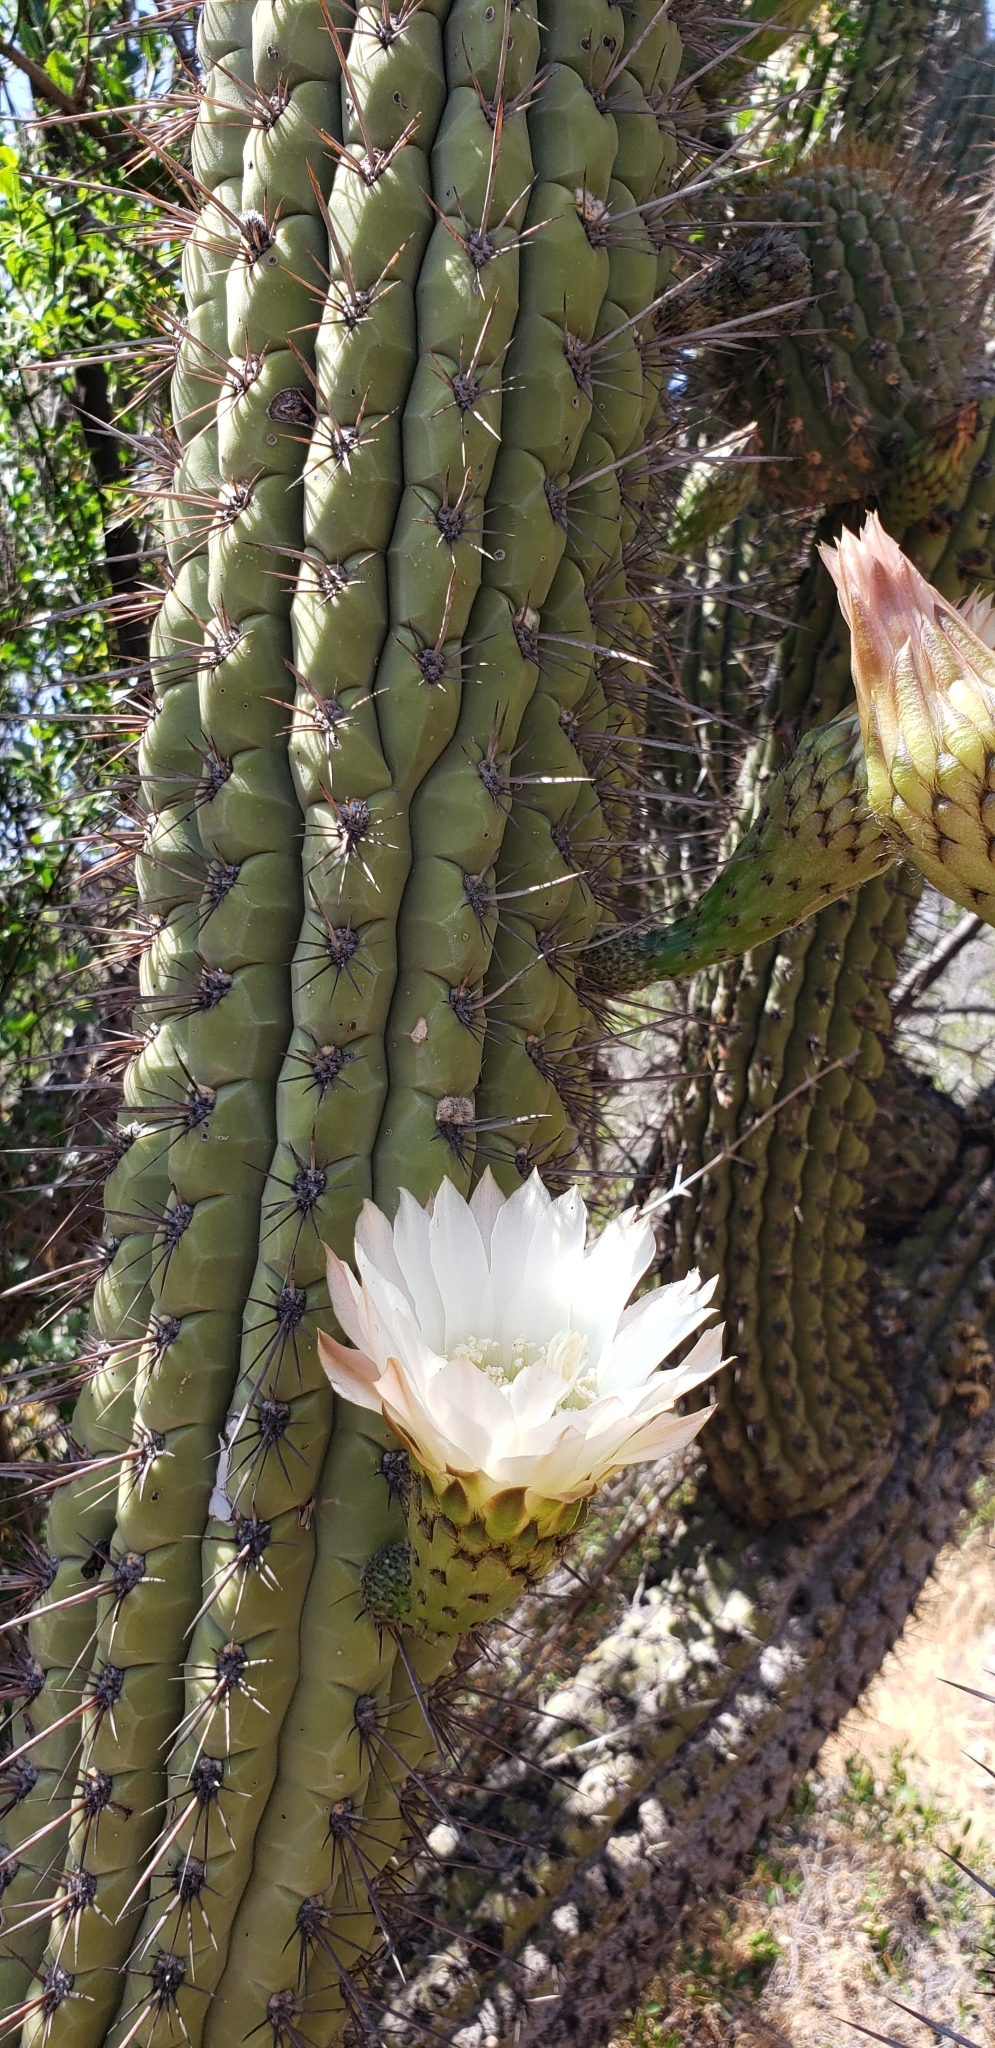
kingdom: Plantae
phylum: Tracheophyta
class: Magnoliopsida
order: Caryophyllales
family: Cactaceae
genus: Leucostele
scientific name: Leucostele chiloensis
